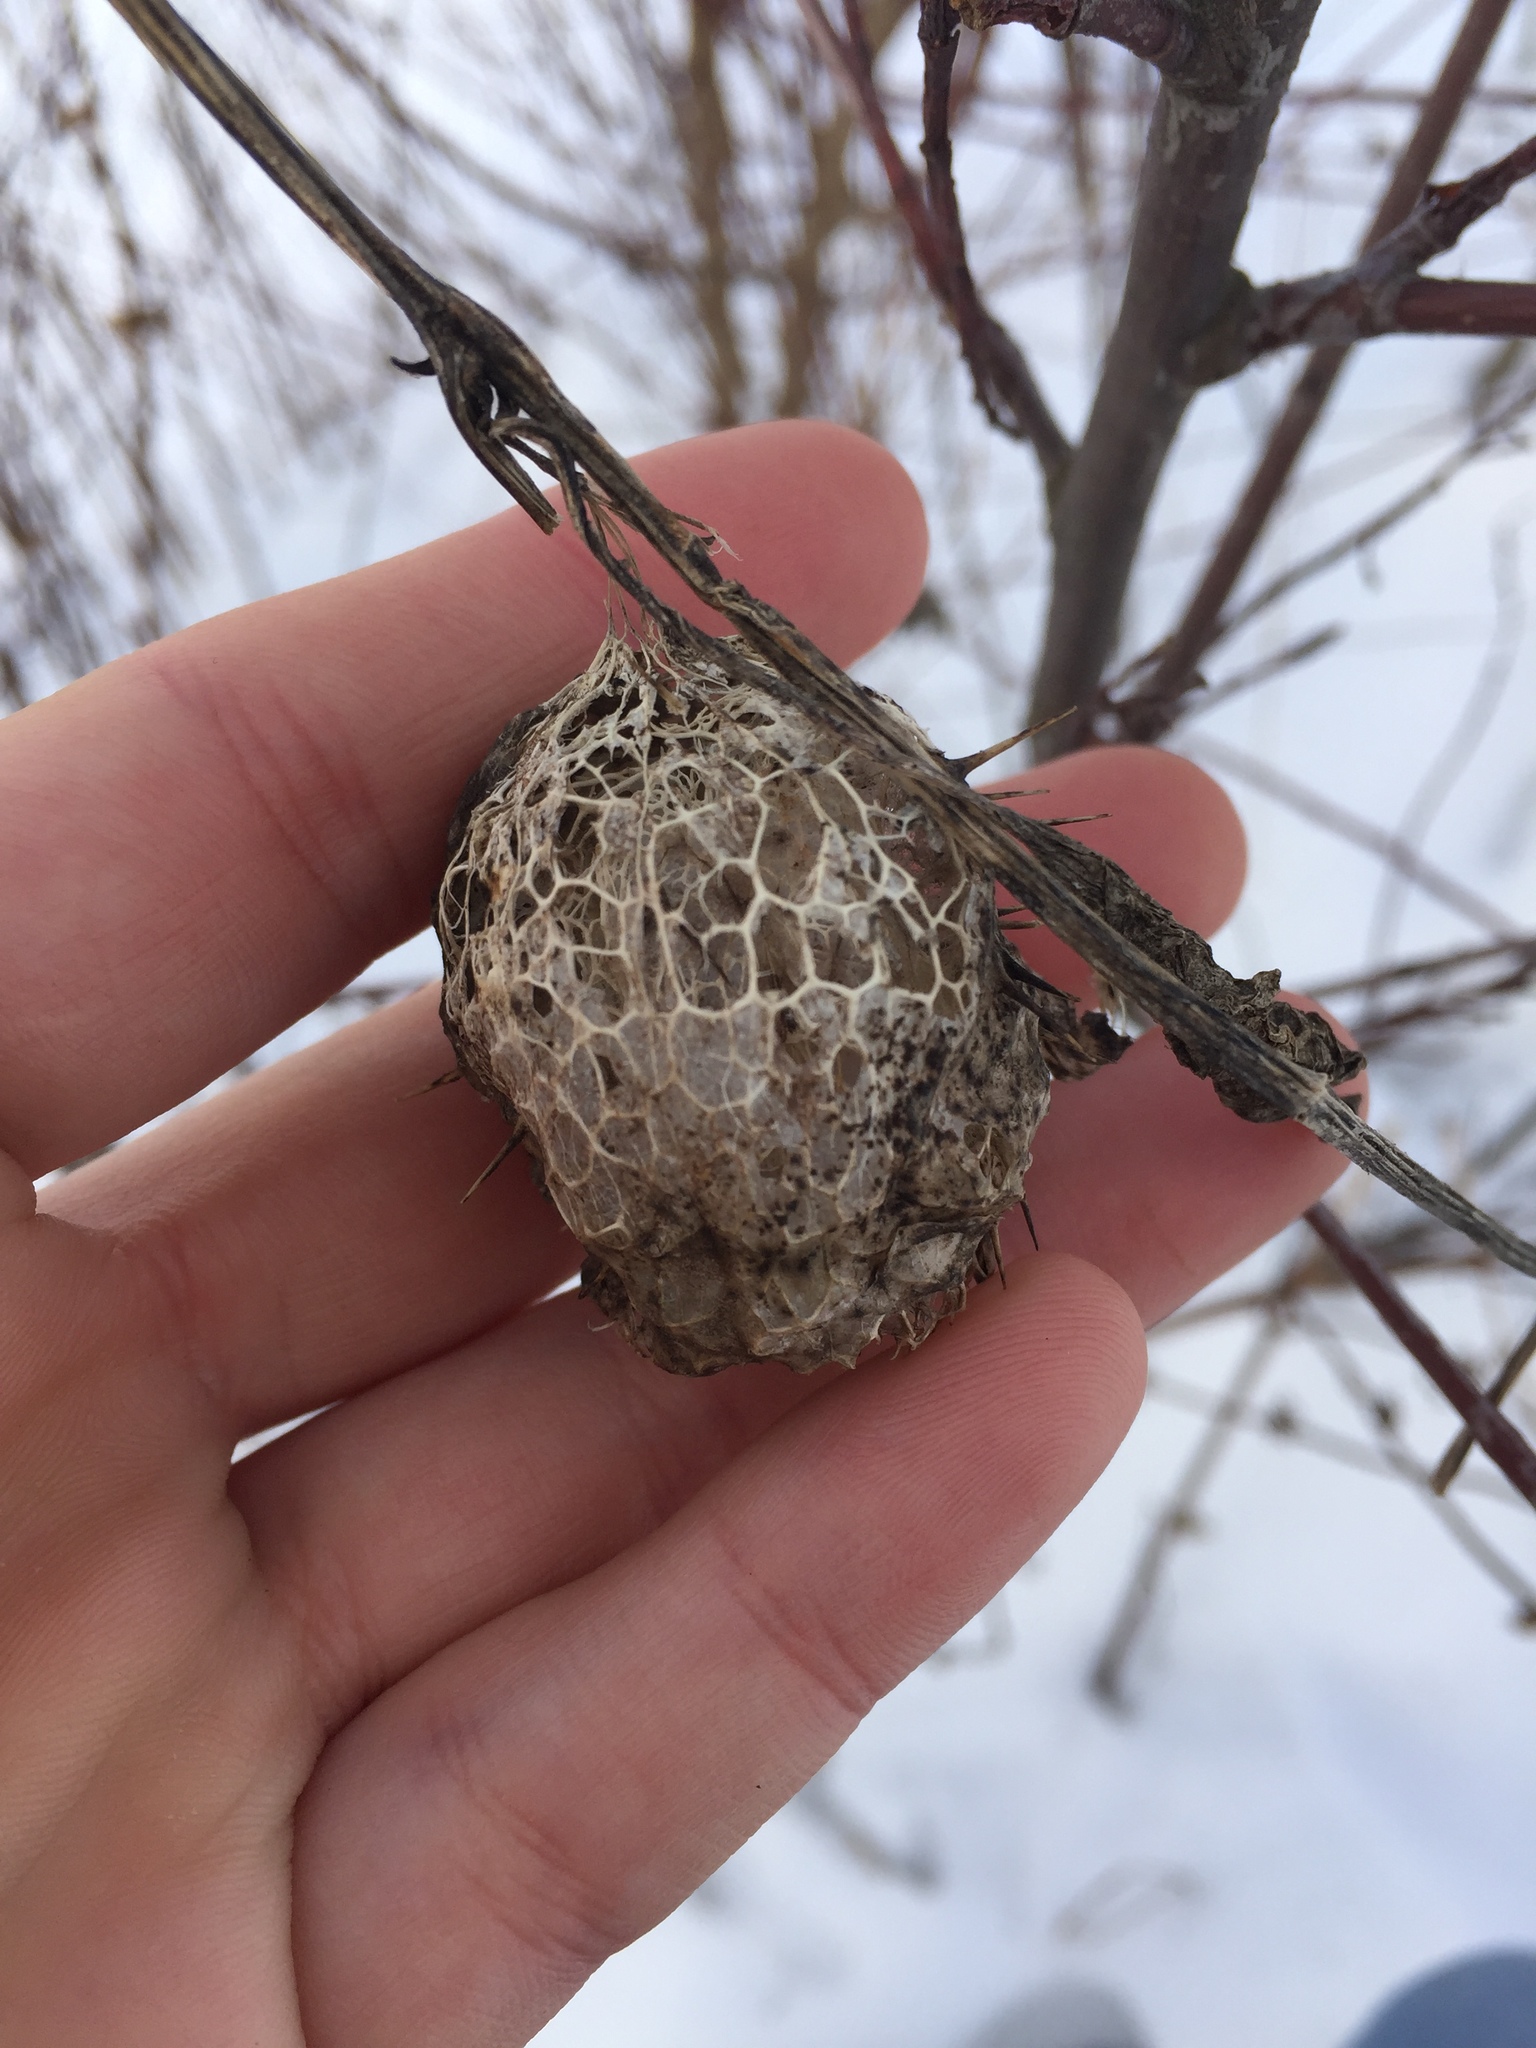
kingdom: Plantae
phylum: Tracheophyta
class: Magnoliopsida
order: Cucurbitales
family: Cucurbitaceae
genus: Echinocystis
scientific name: Echinocystis lobata
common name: Wild cucumber
